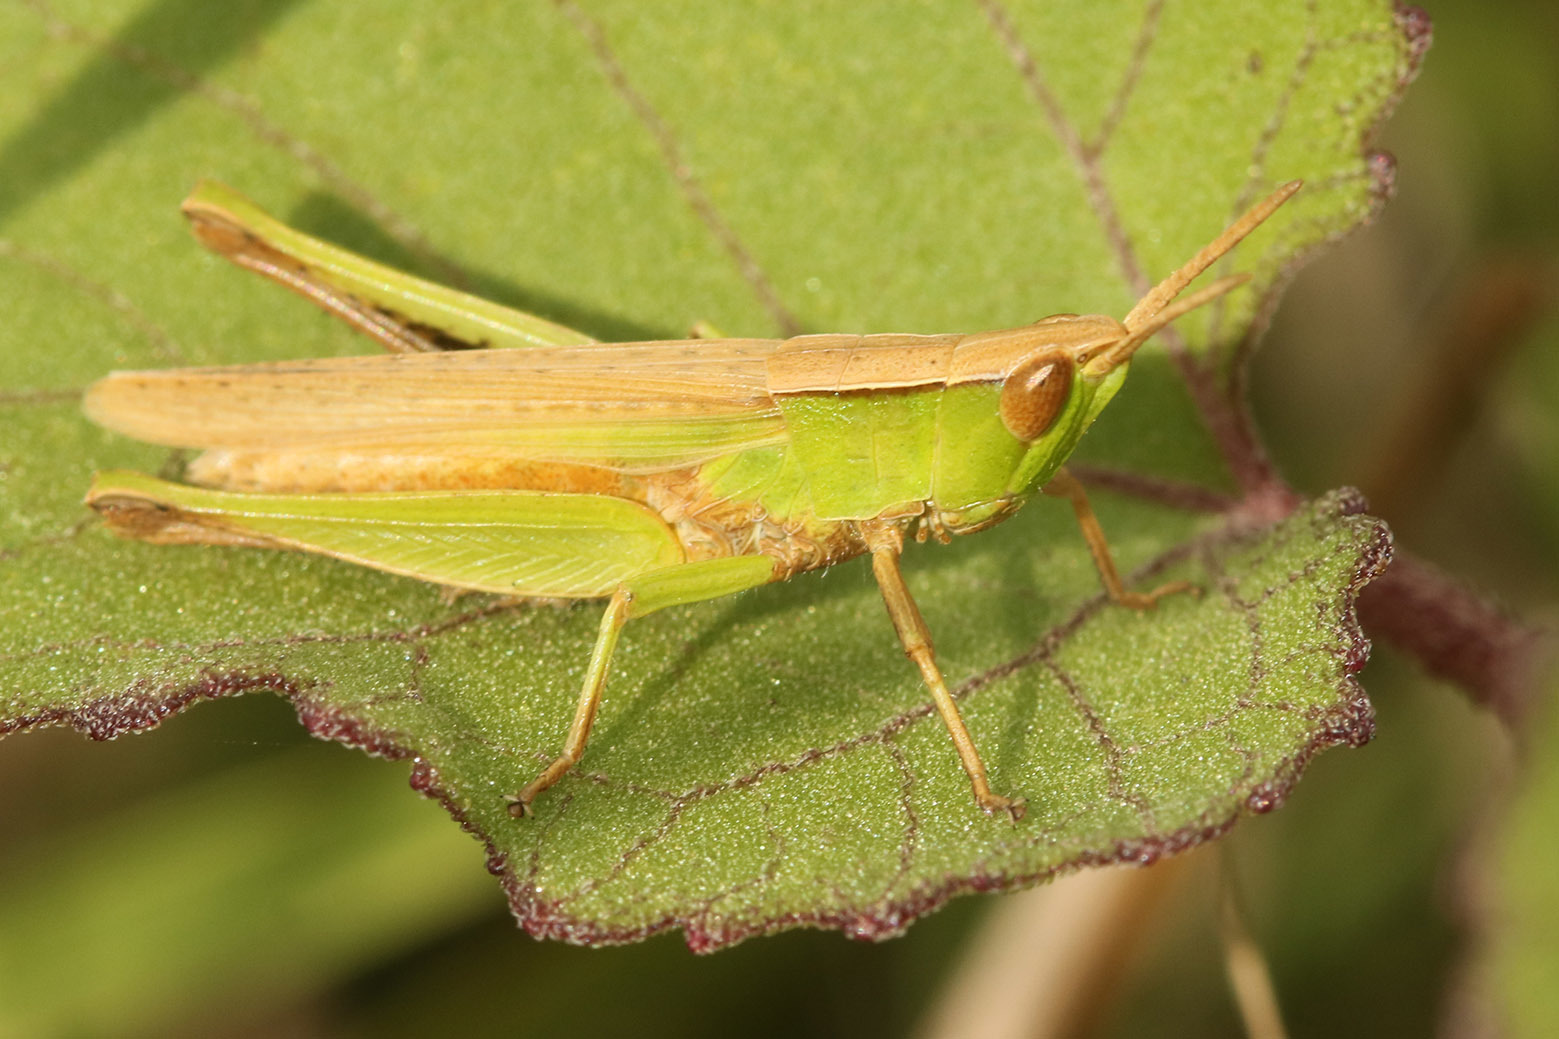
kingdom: Animalia
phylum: Arthropoda
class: Insecta
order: Orthoptera
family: Acrididae
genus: Laplatacris
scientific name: Laplatacris dispar
